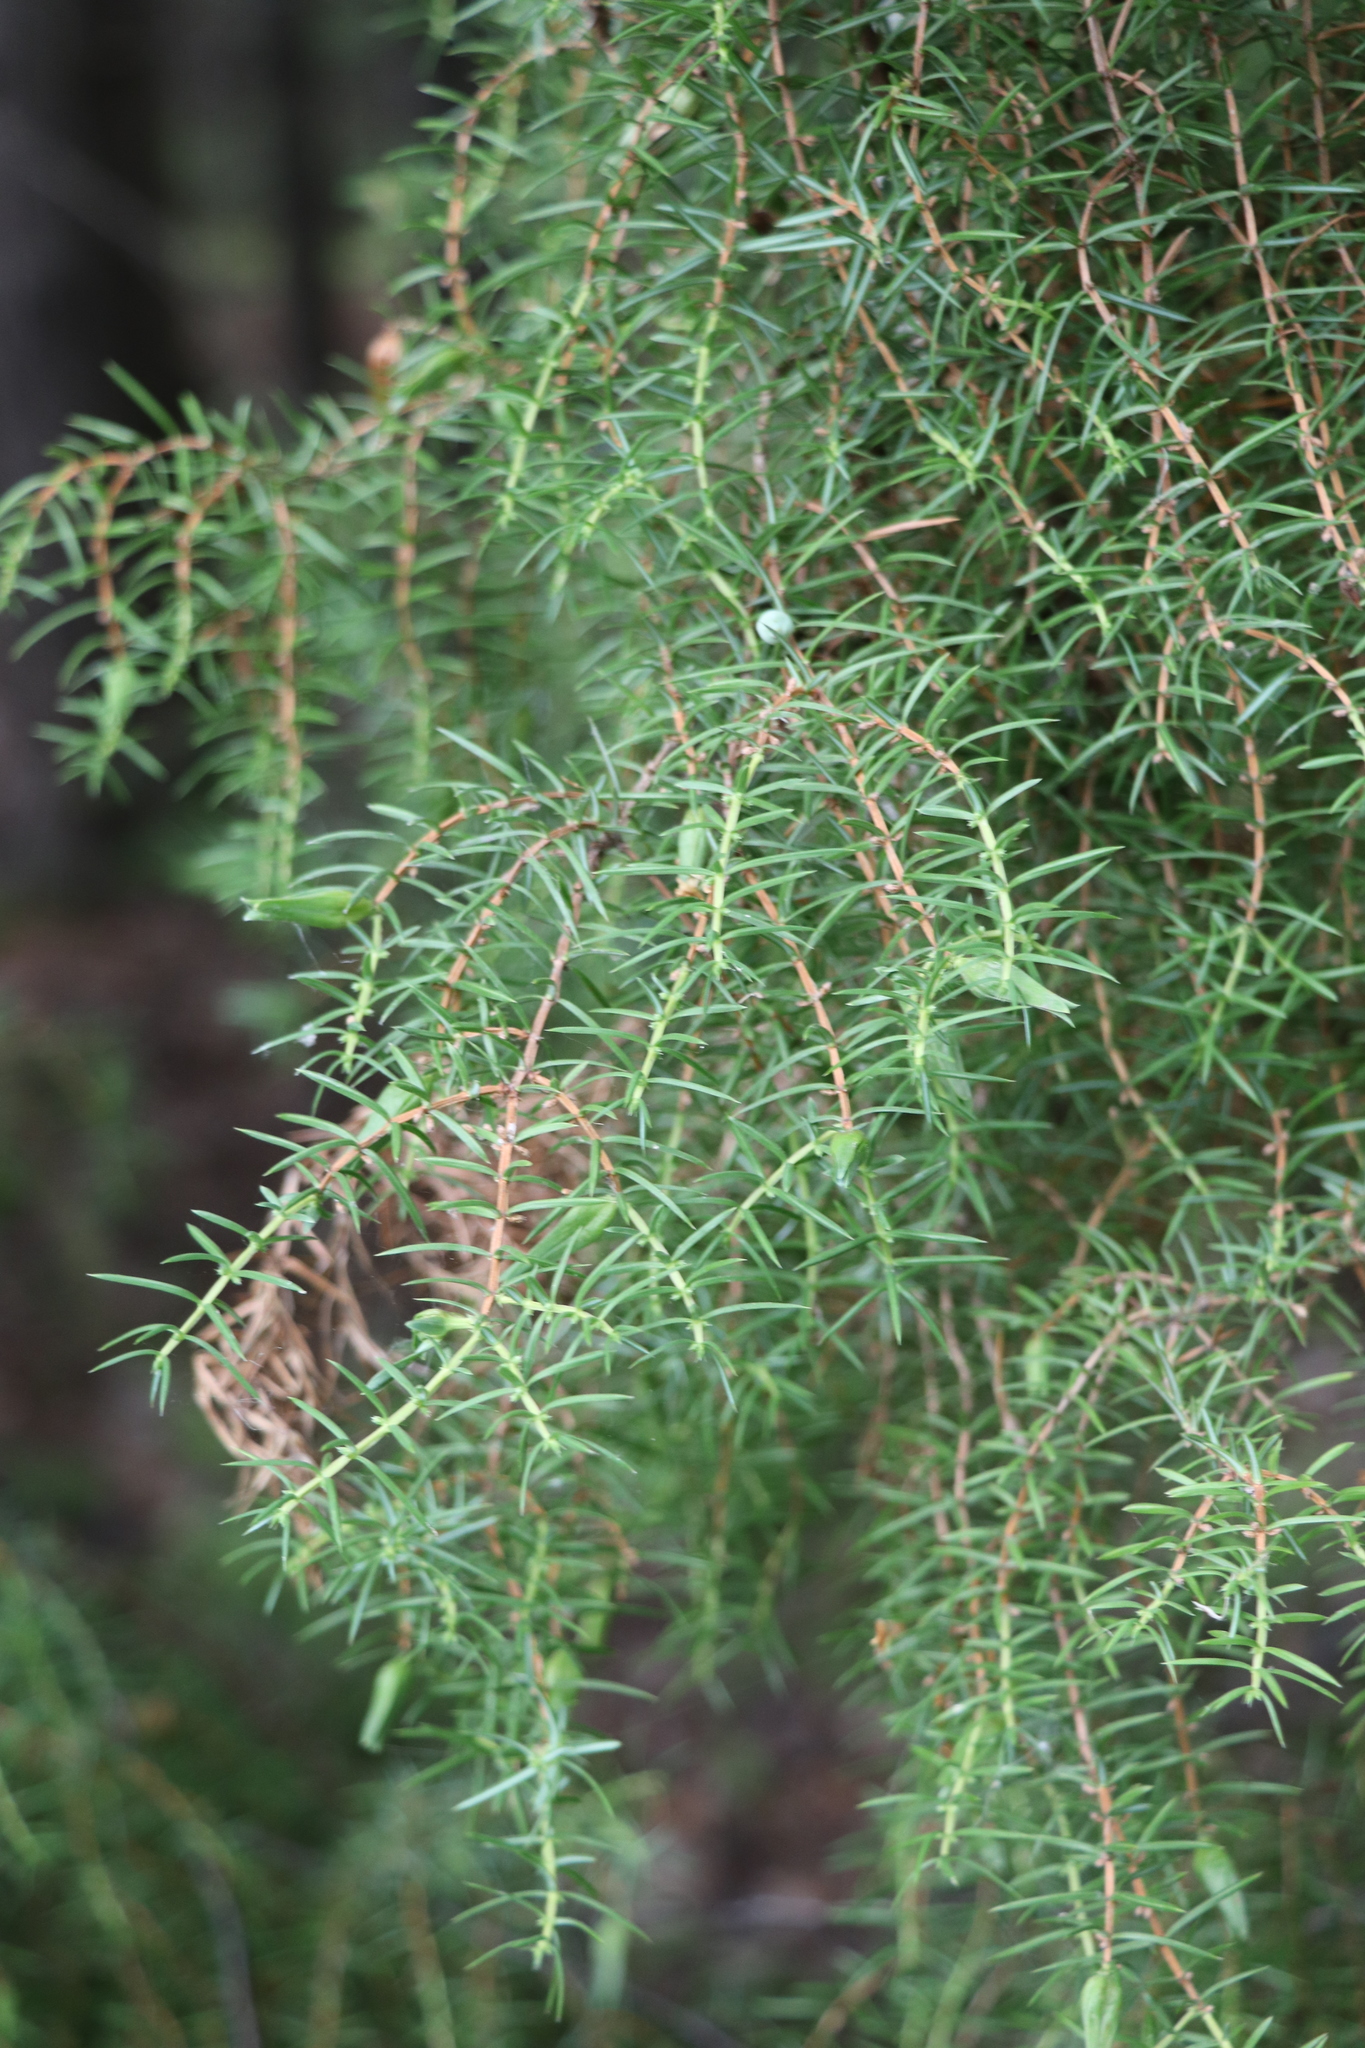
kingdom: Plantae
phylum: Tracheophyta
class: Pinopsida
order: Pinales
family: Cupressaceae
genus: Juniperus
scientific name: Juniperus communis
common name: Common juniper
